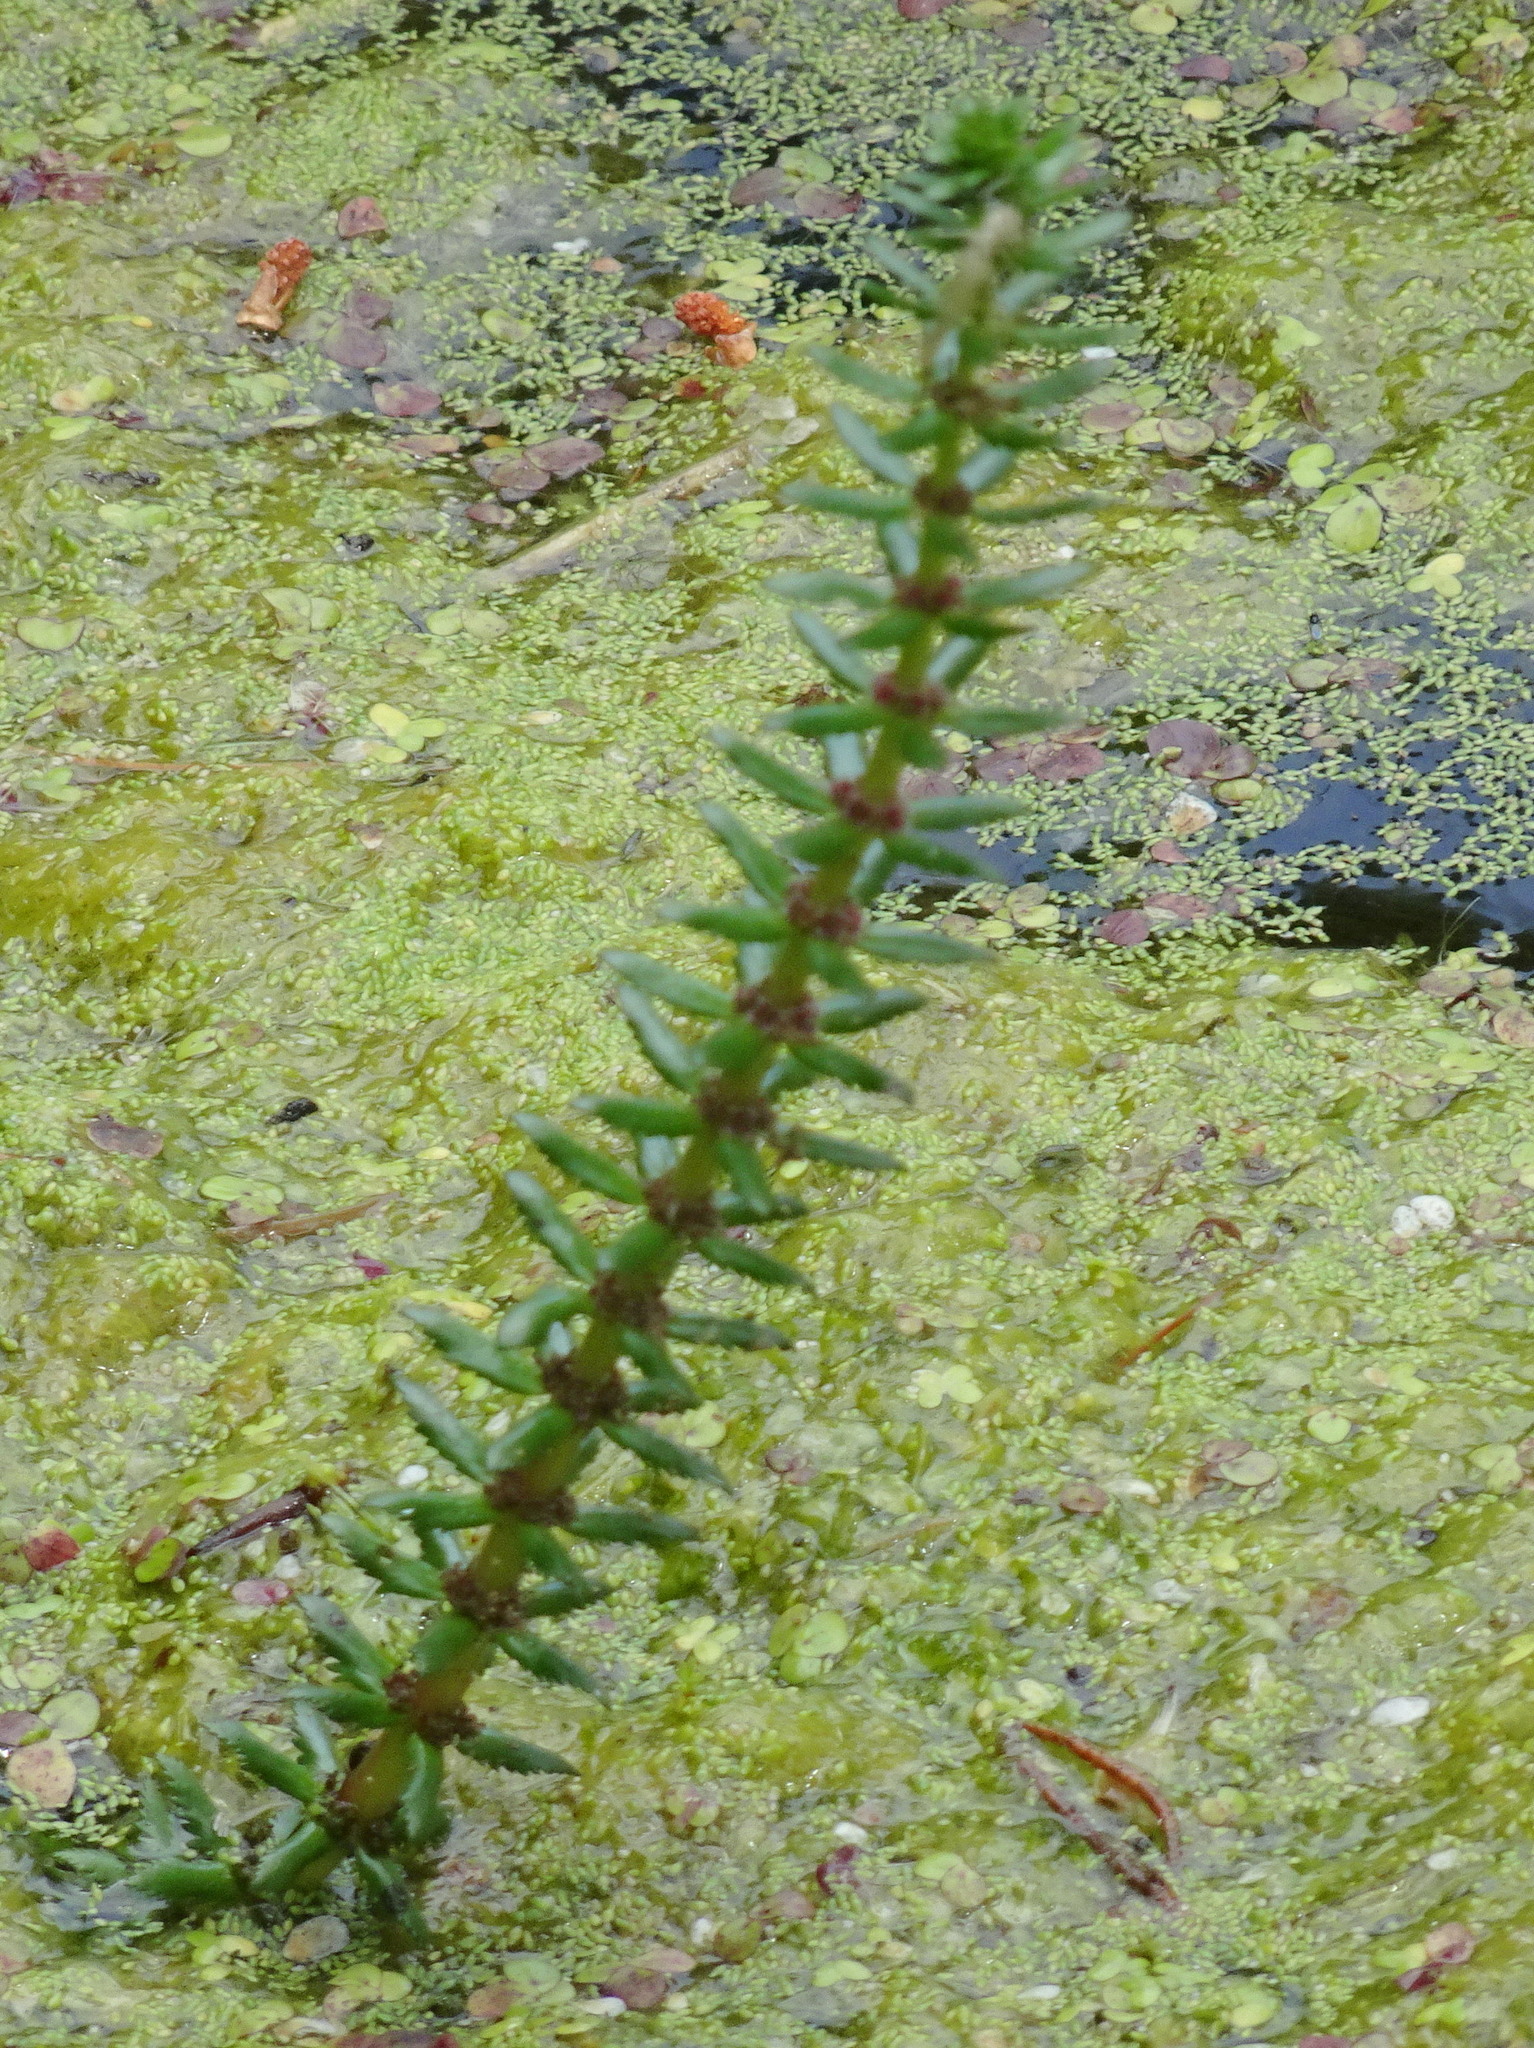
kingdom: Plantae
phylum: Tracheophyta
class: Magnoliopsida
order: Saxifragales
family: Haloragaceae
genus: Myriophyllum
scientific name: Myriophyllum heterophyllum
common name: Variable watermilfoil
